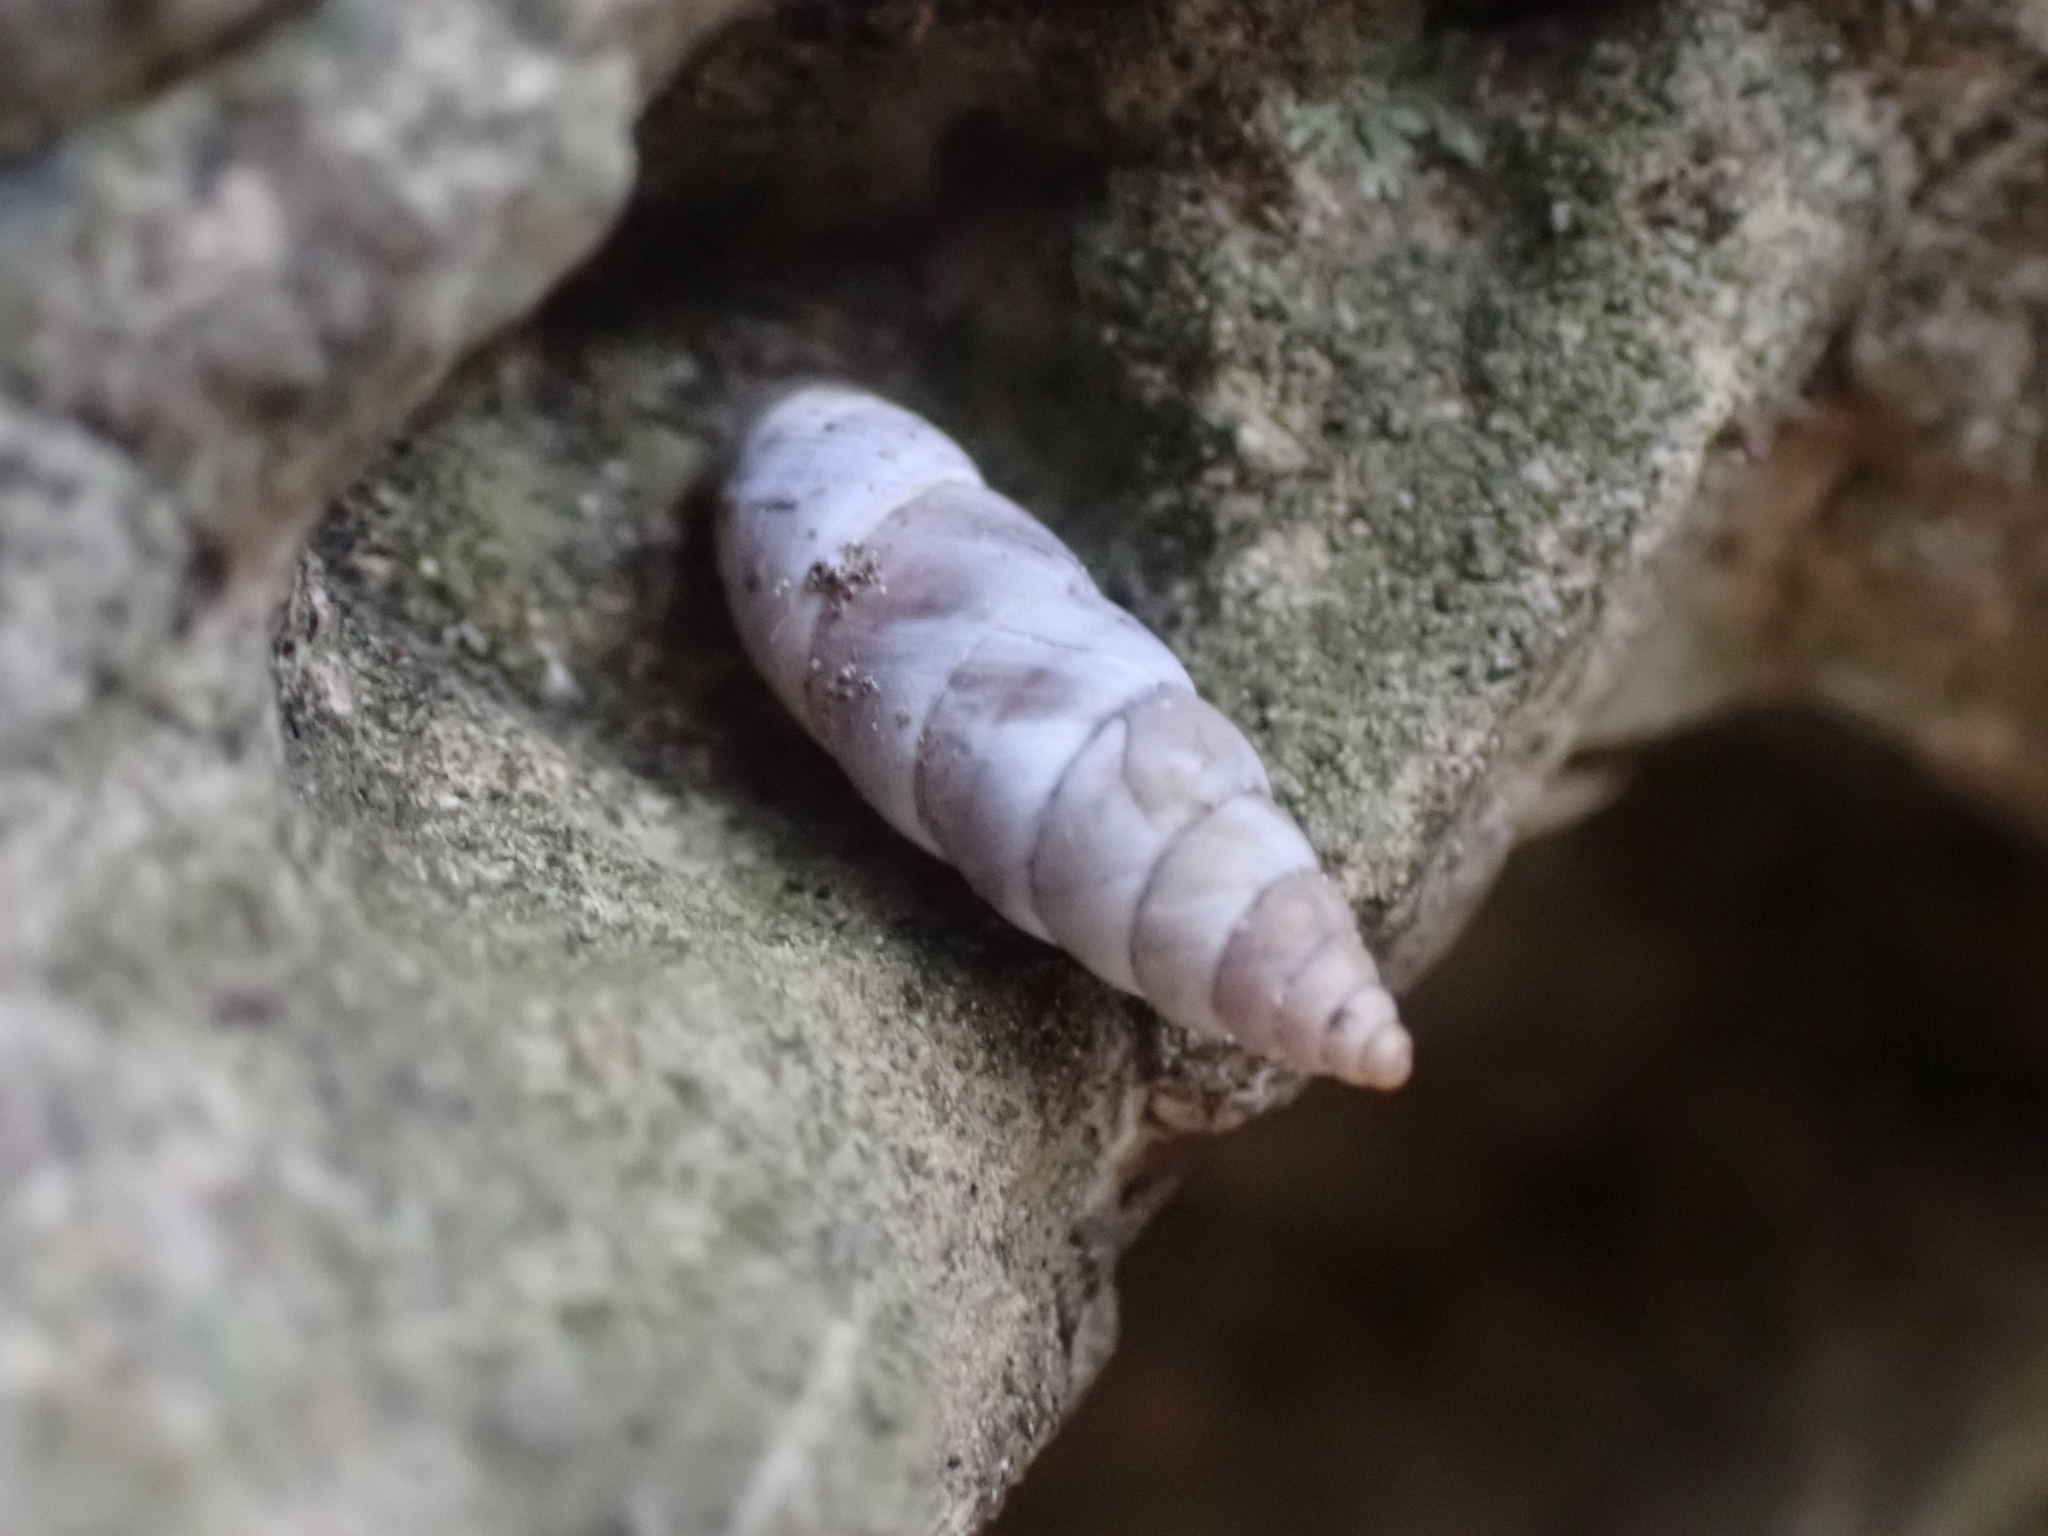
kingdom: Animalia
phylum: Mollusca
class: Gastropoda
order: Stylommatophora
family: Chondrinidae
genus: Solatopupa
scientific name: Solatopupa similis
